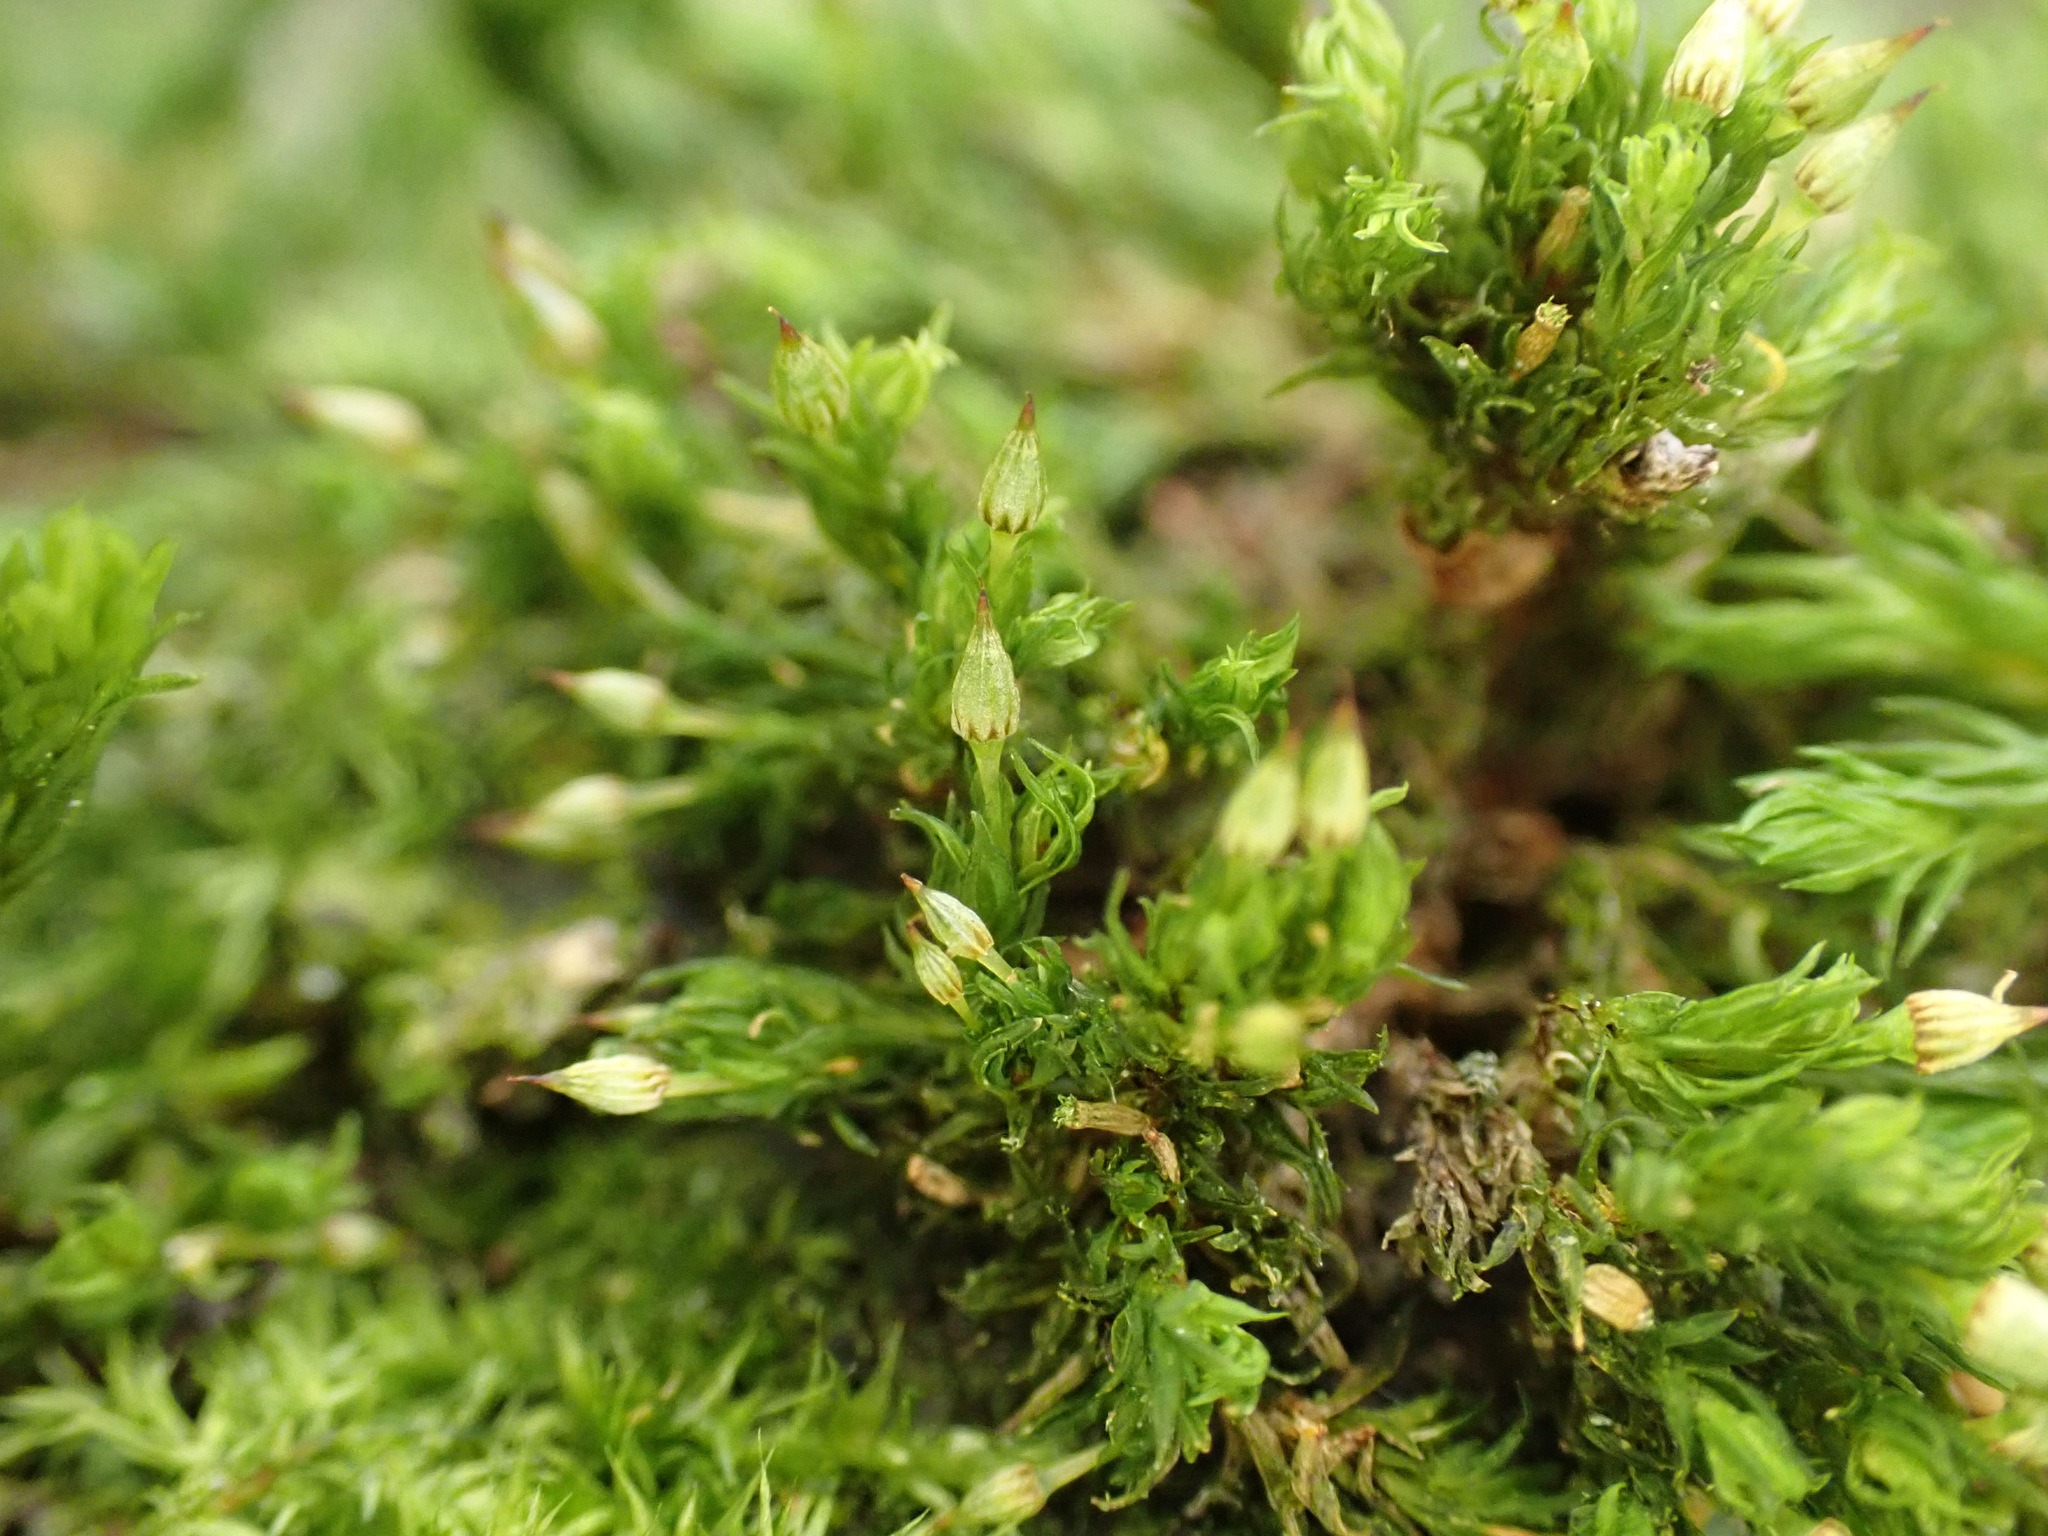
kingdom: Plantae
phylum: Bryophyta
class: Bryopsida
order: Orthotrichales
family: Orthotrichaceae
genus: Orthotrichum
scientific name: Orthotrichum pulchellum
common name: Elegant bristle-moss
